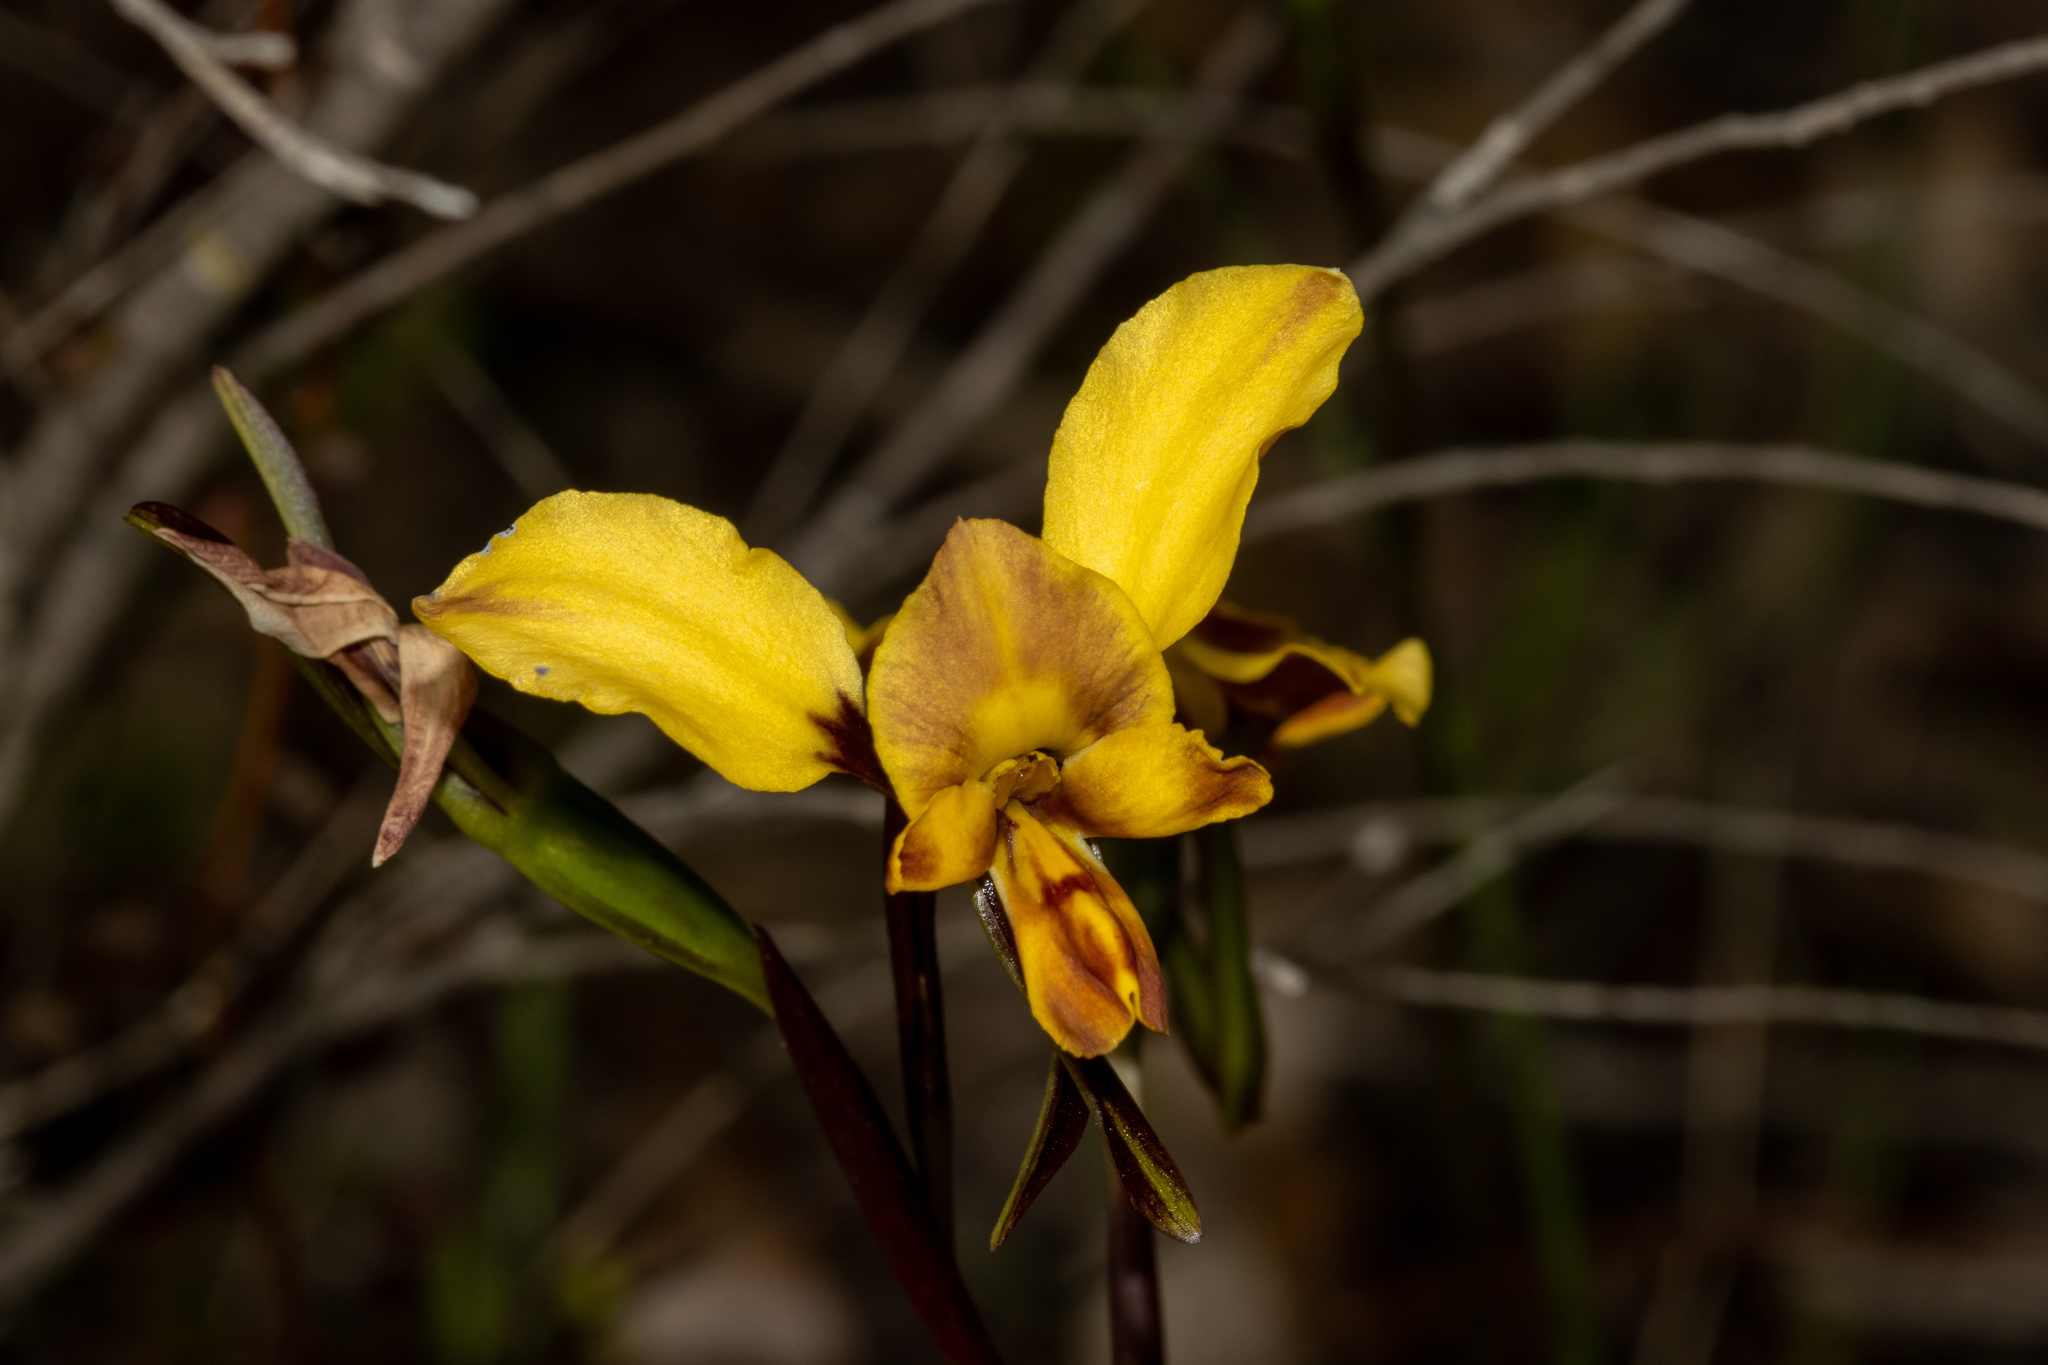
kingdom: Plantae
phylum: Tracheophyta
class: Liliopsida
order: Asparagales
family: Orchidaceae
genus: Diuris
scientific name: Diuris orientis
